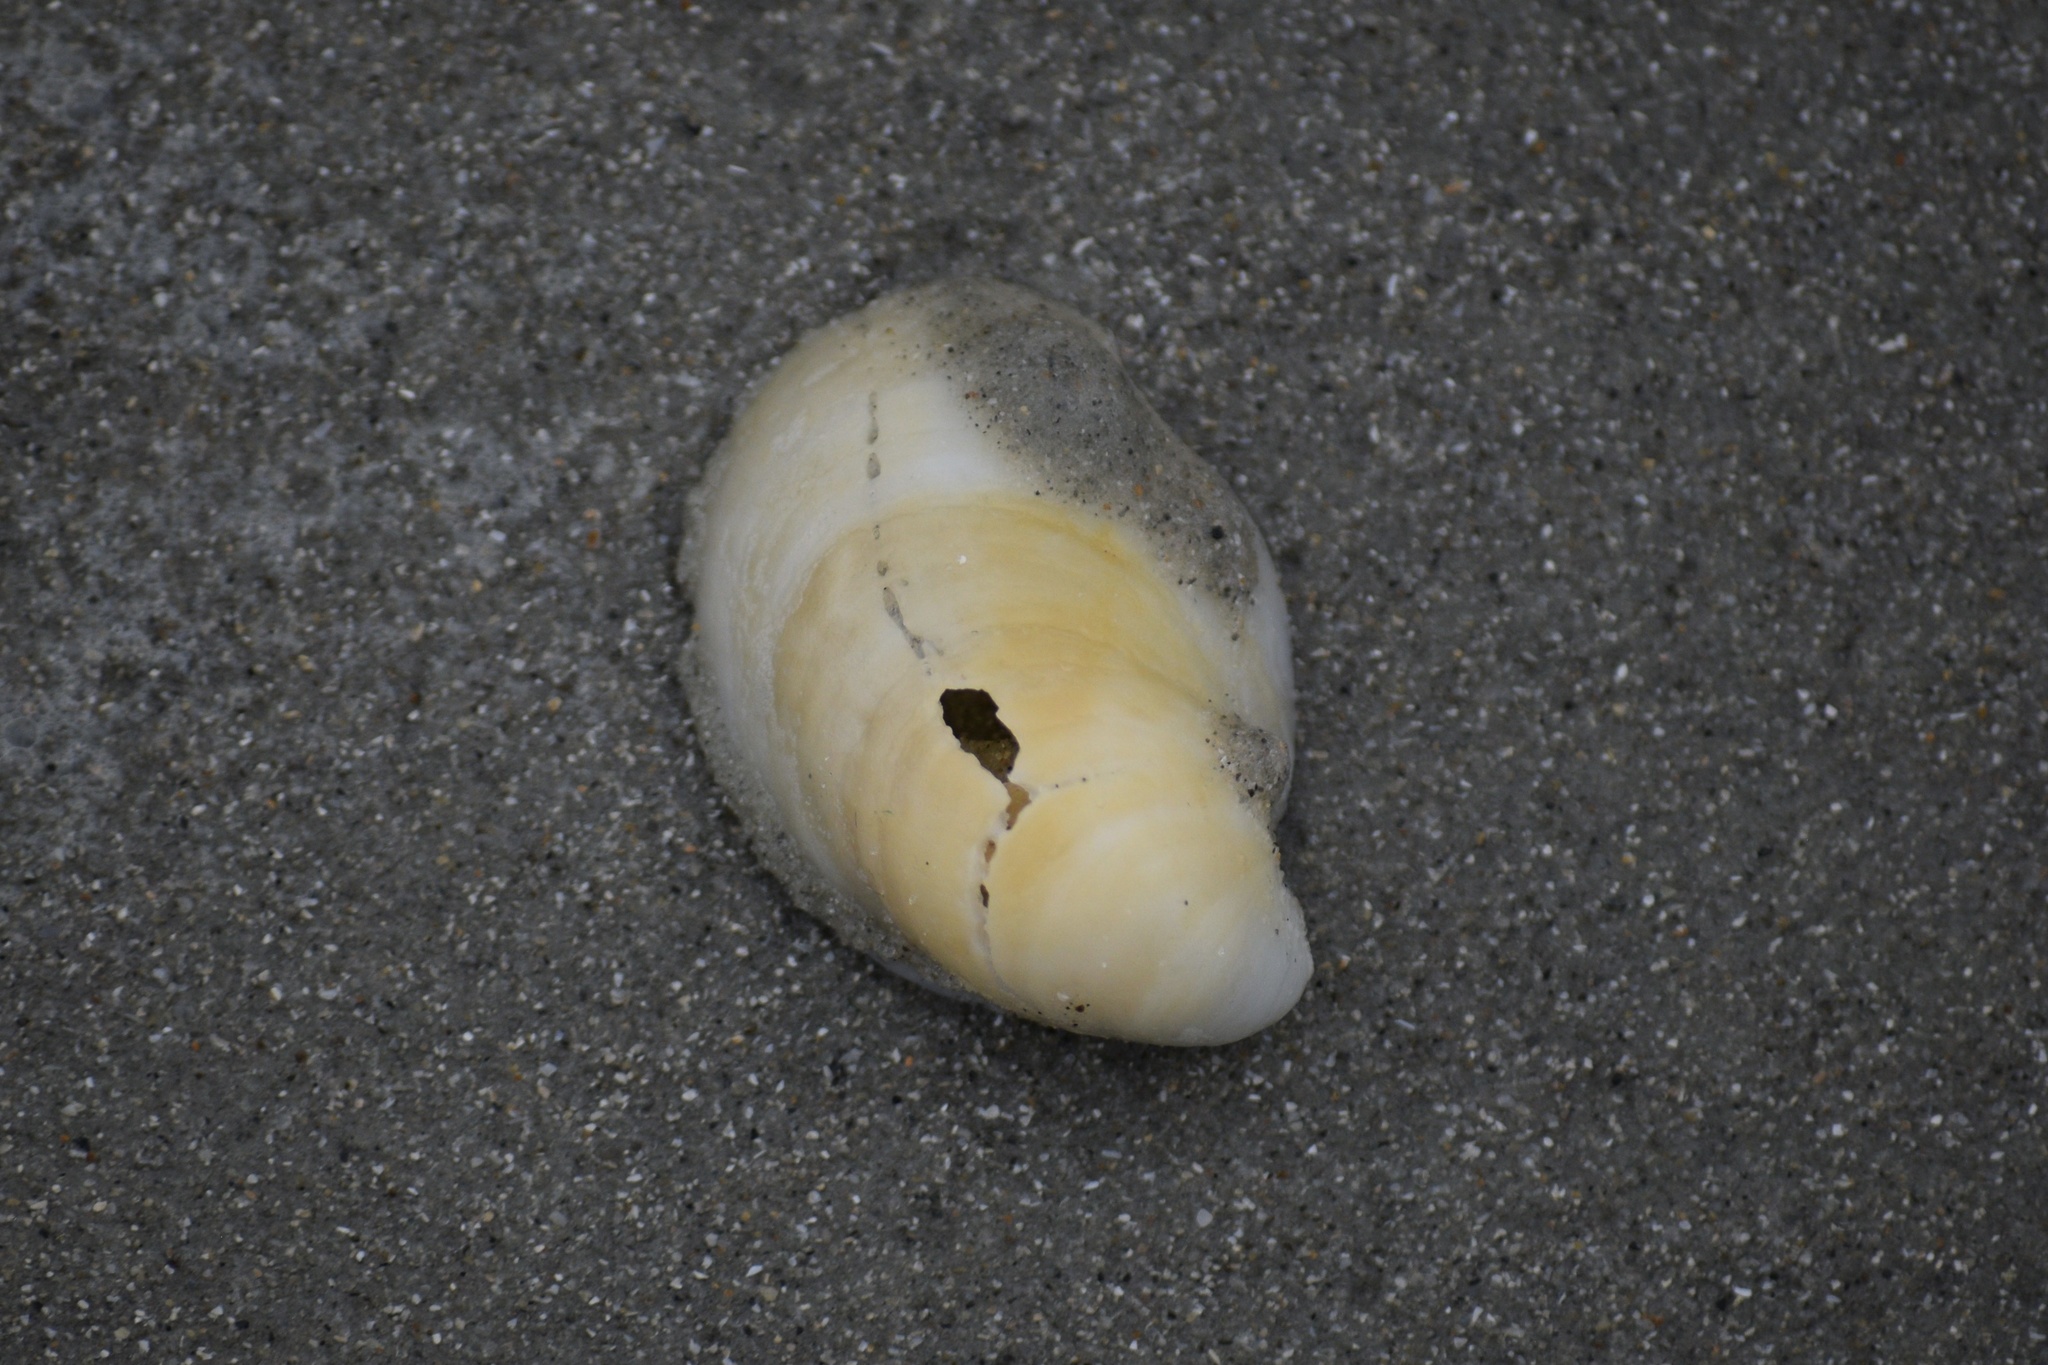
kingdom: Animalia
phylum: Mollusca
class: Gastropoda
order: Littorinimorpha
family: Calyptraeidae
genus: Crepidula
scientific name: Crepidula fornicata
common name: Slipper limpet
